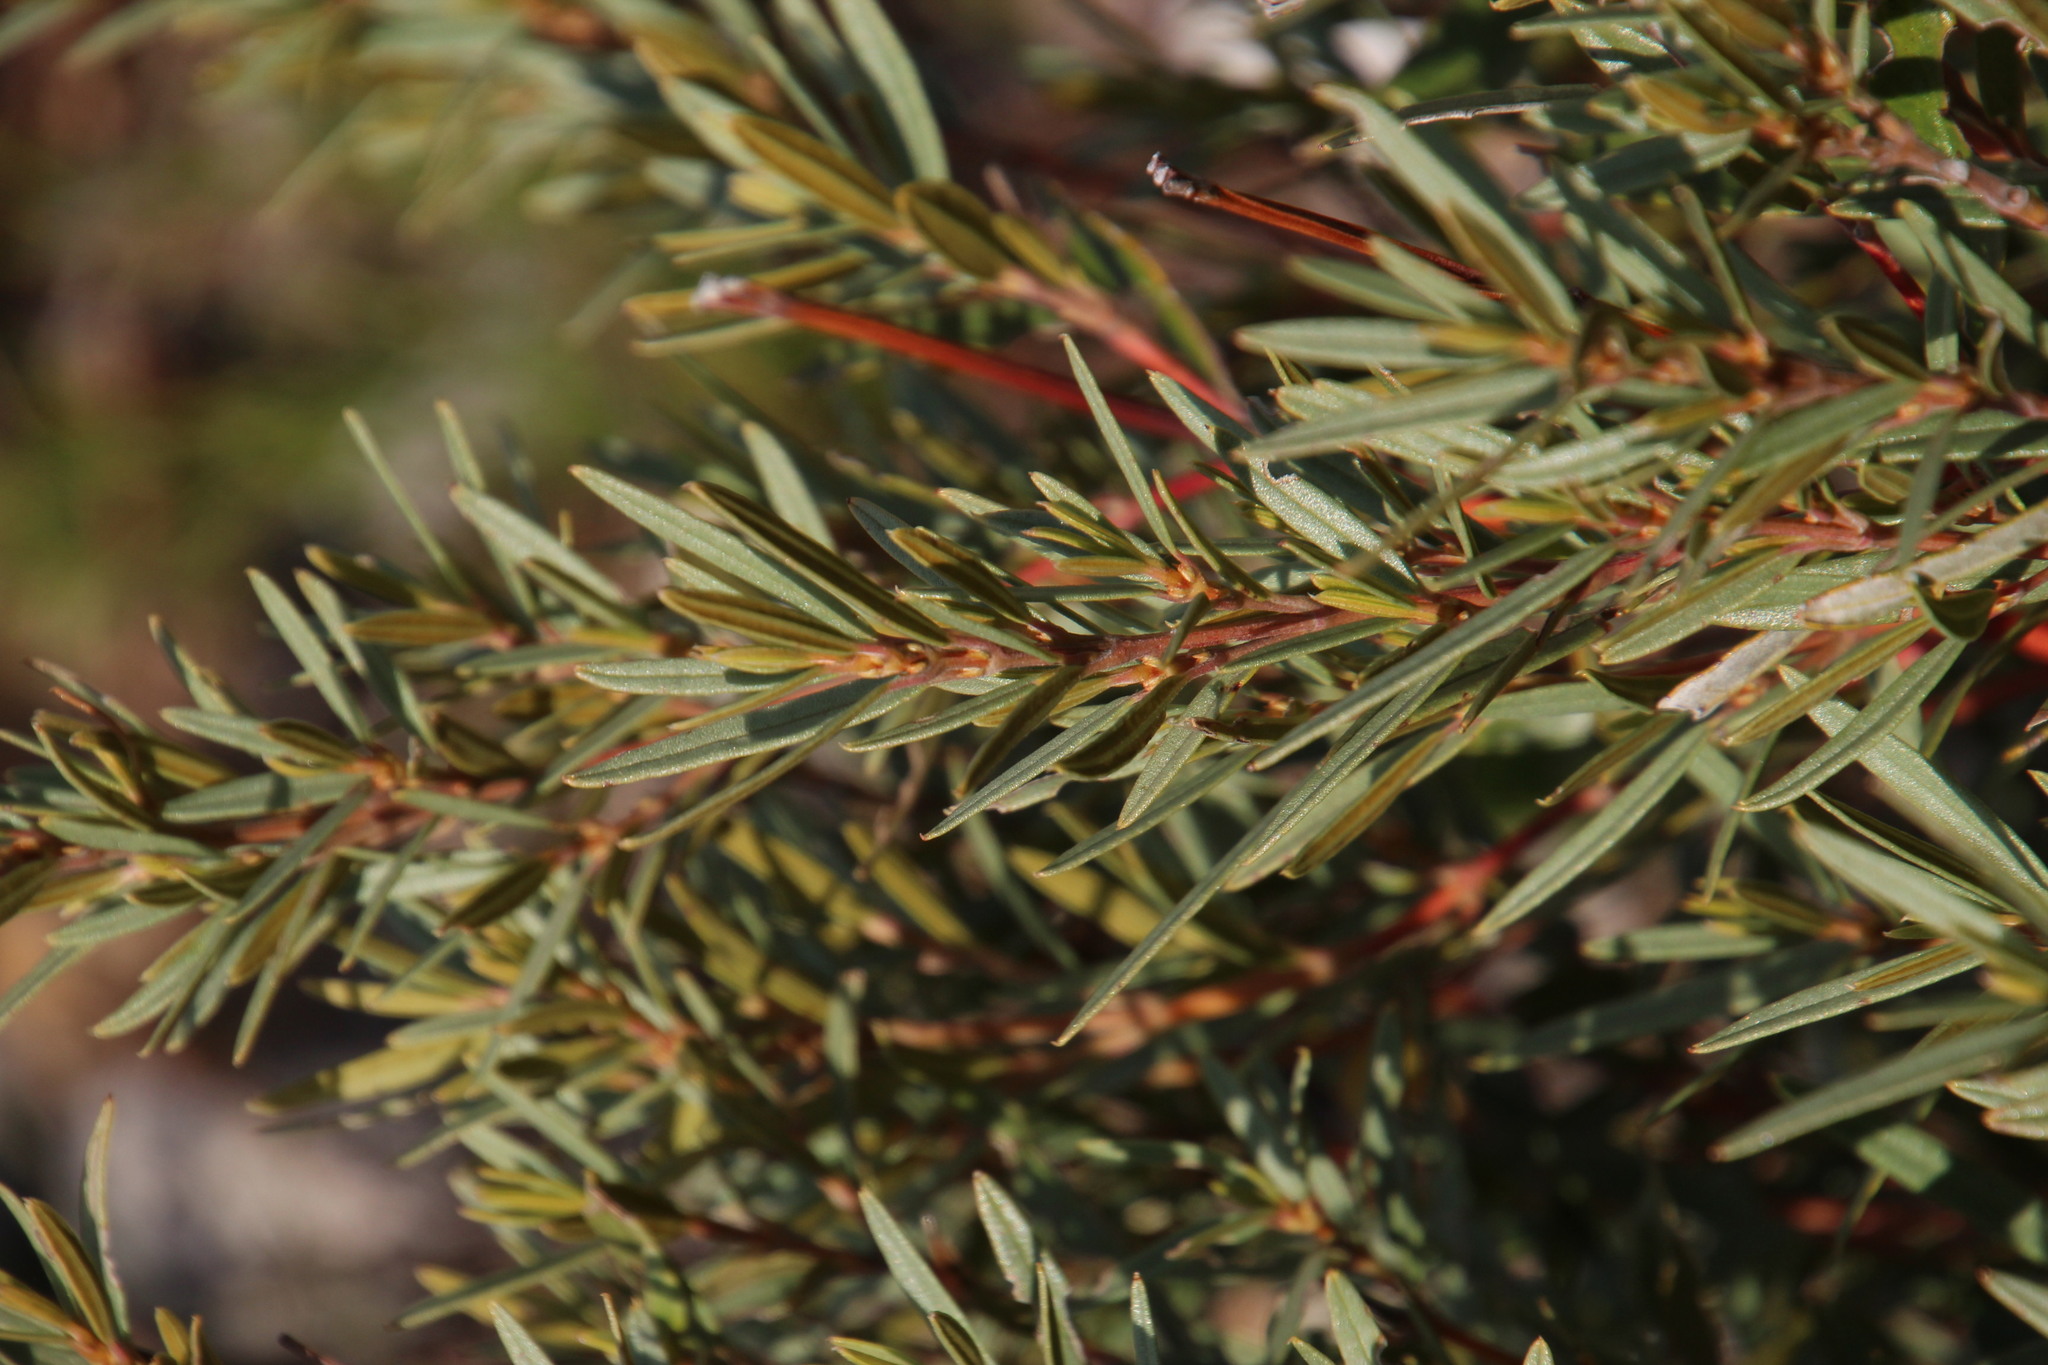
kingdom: Plantae
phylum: Tracheophyta
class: Magnoliopsida
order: Cornales
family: Grubbiaceae
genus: Grubbia
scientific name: Grubbia tomentosa
